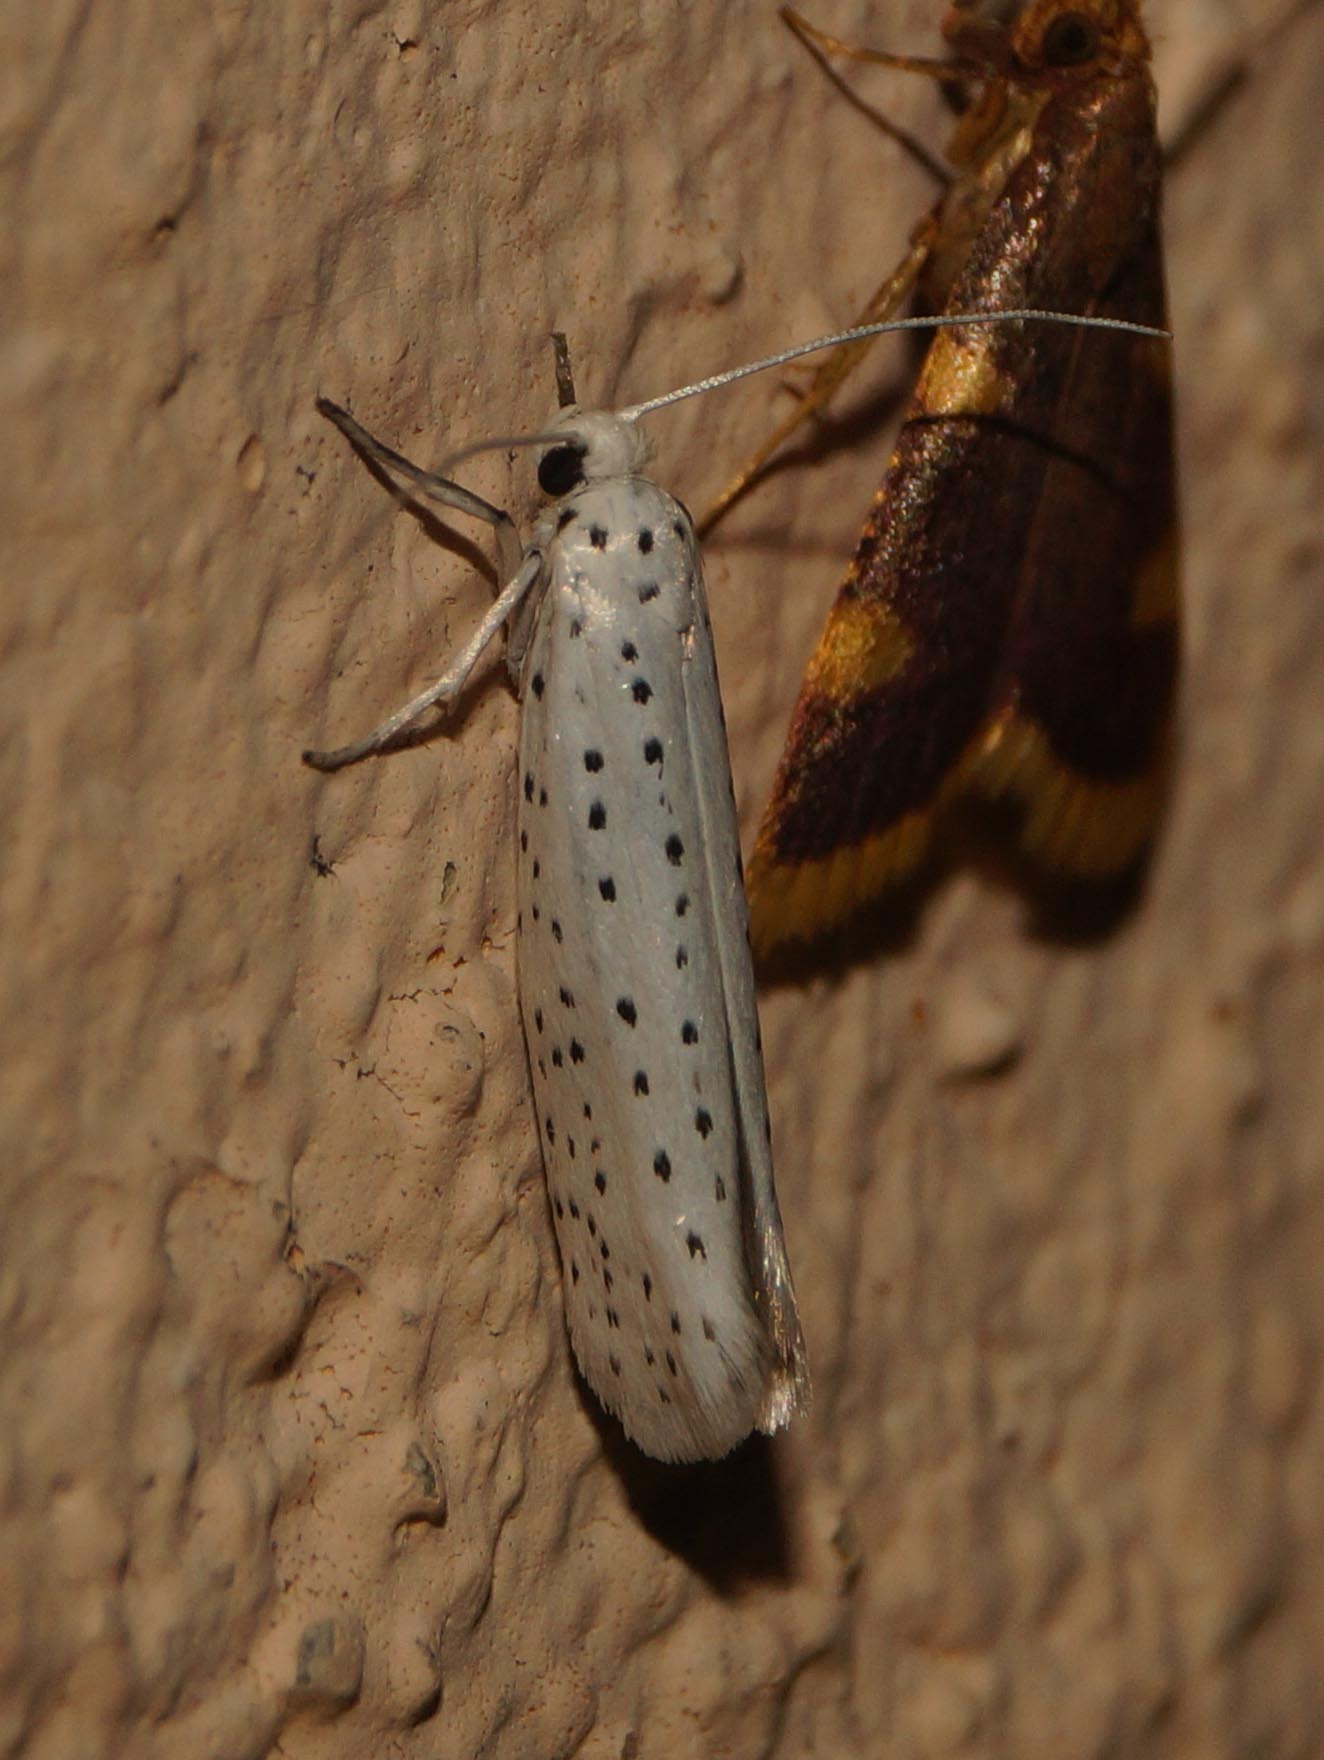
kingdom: Animalia
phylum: Arthropoda
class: Insecta
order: Lepidoptera
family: Yponomeutidae
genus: Yponomeuta
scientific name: Yponomeuta evonymella
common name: Bird-cherry ermine
